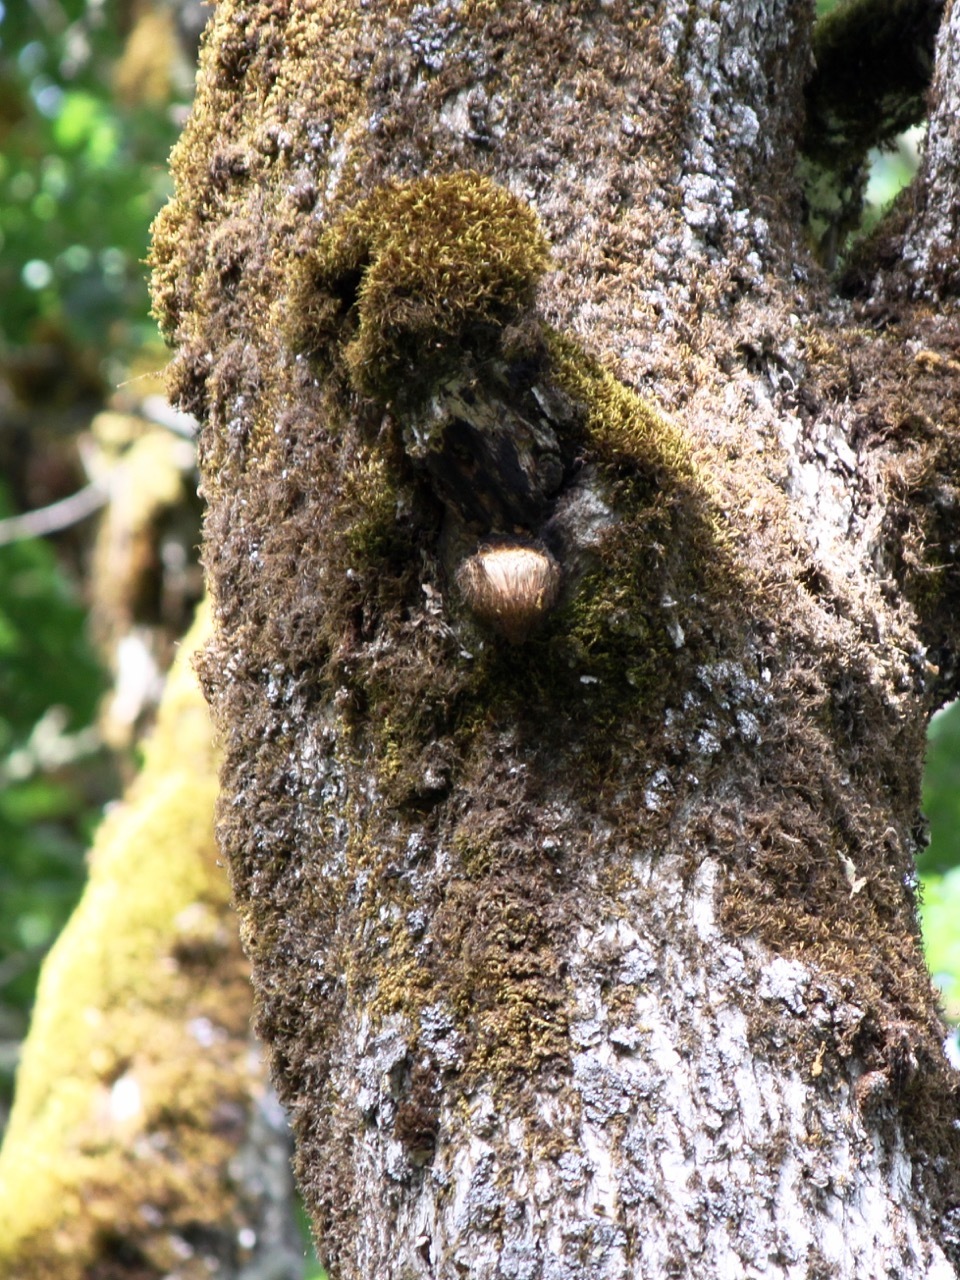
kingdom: Fungi
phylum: Basidiomycota
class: Agaricomycetes
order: Russulales
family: Hericiaceae
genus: Hericium
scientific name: Hericium erinaceus
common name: Bearded tooth
